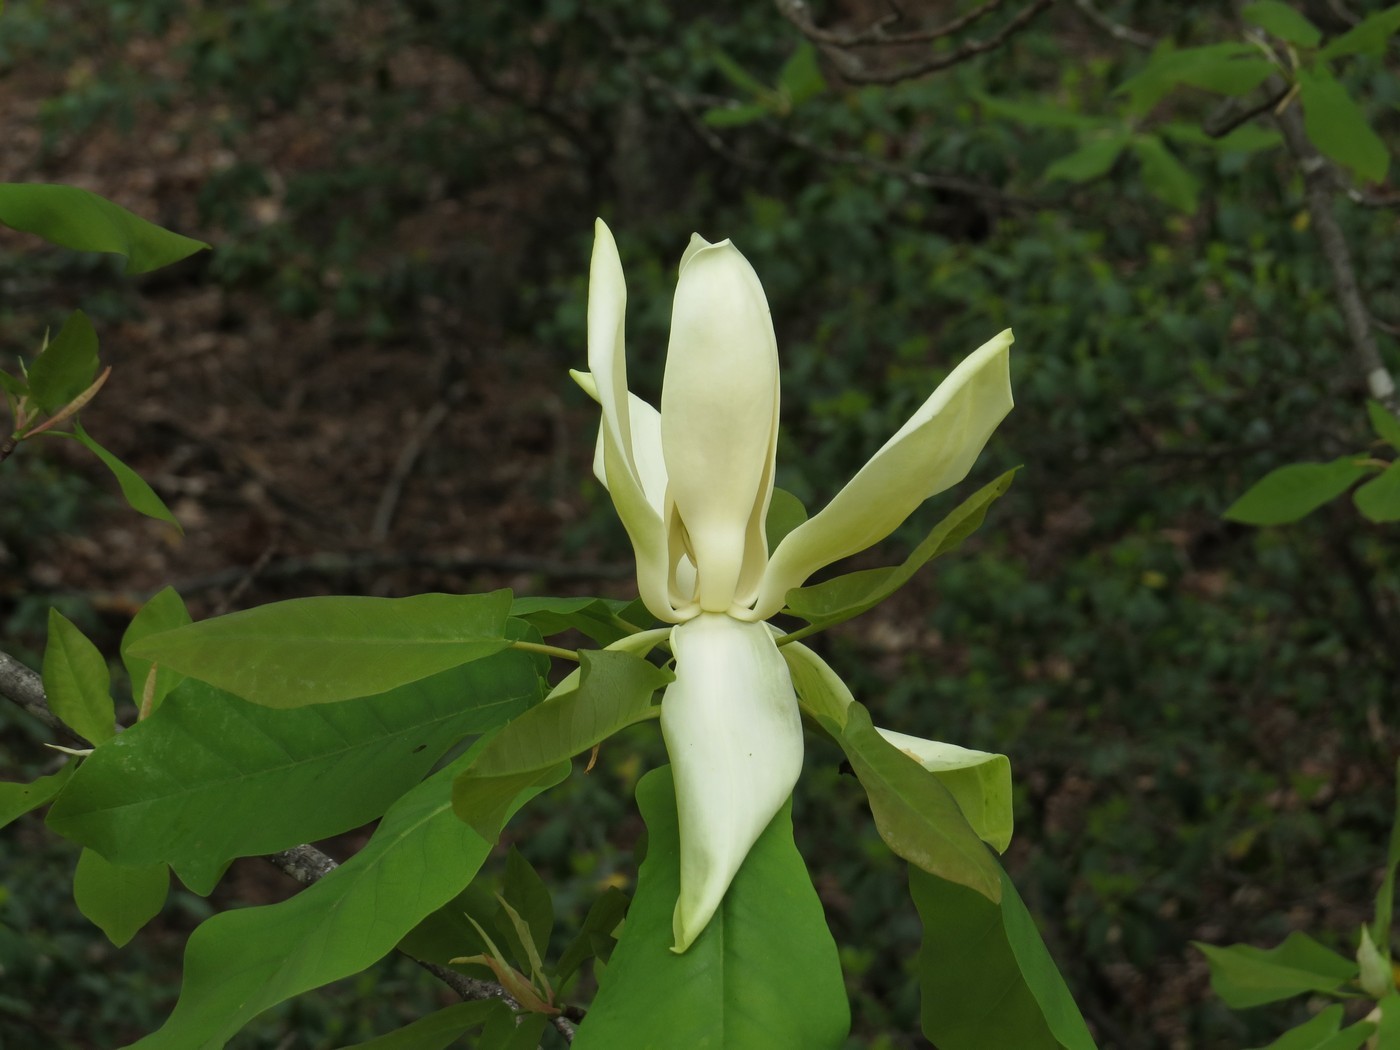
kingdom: Plantae
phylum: Tracheophyta
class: Magnoliopsida
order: Magnoliales
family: Magnoliaceae
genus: Magnolia
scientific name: Magnolia fraseri
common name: Fraser's magnolia
